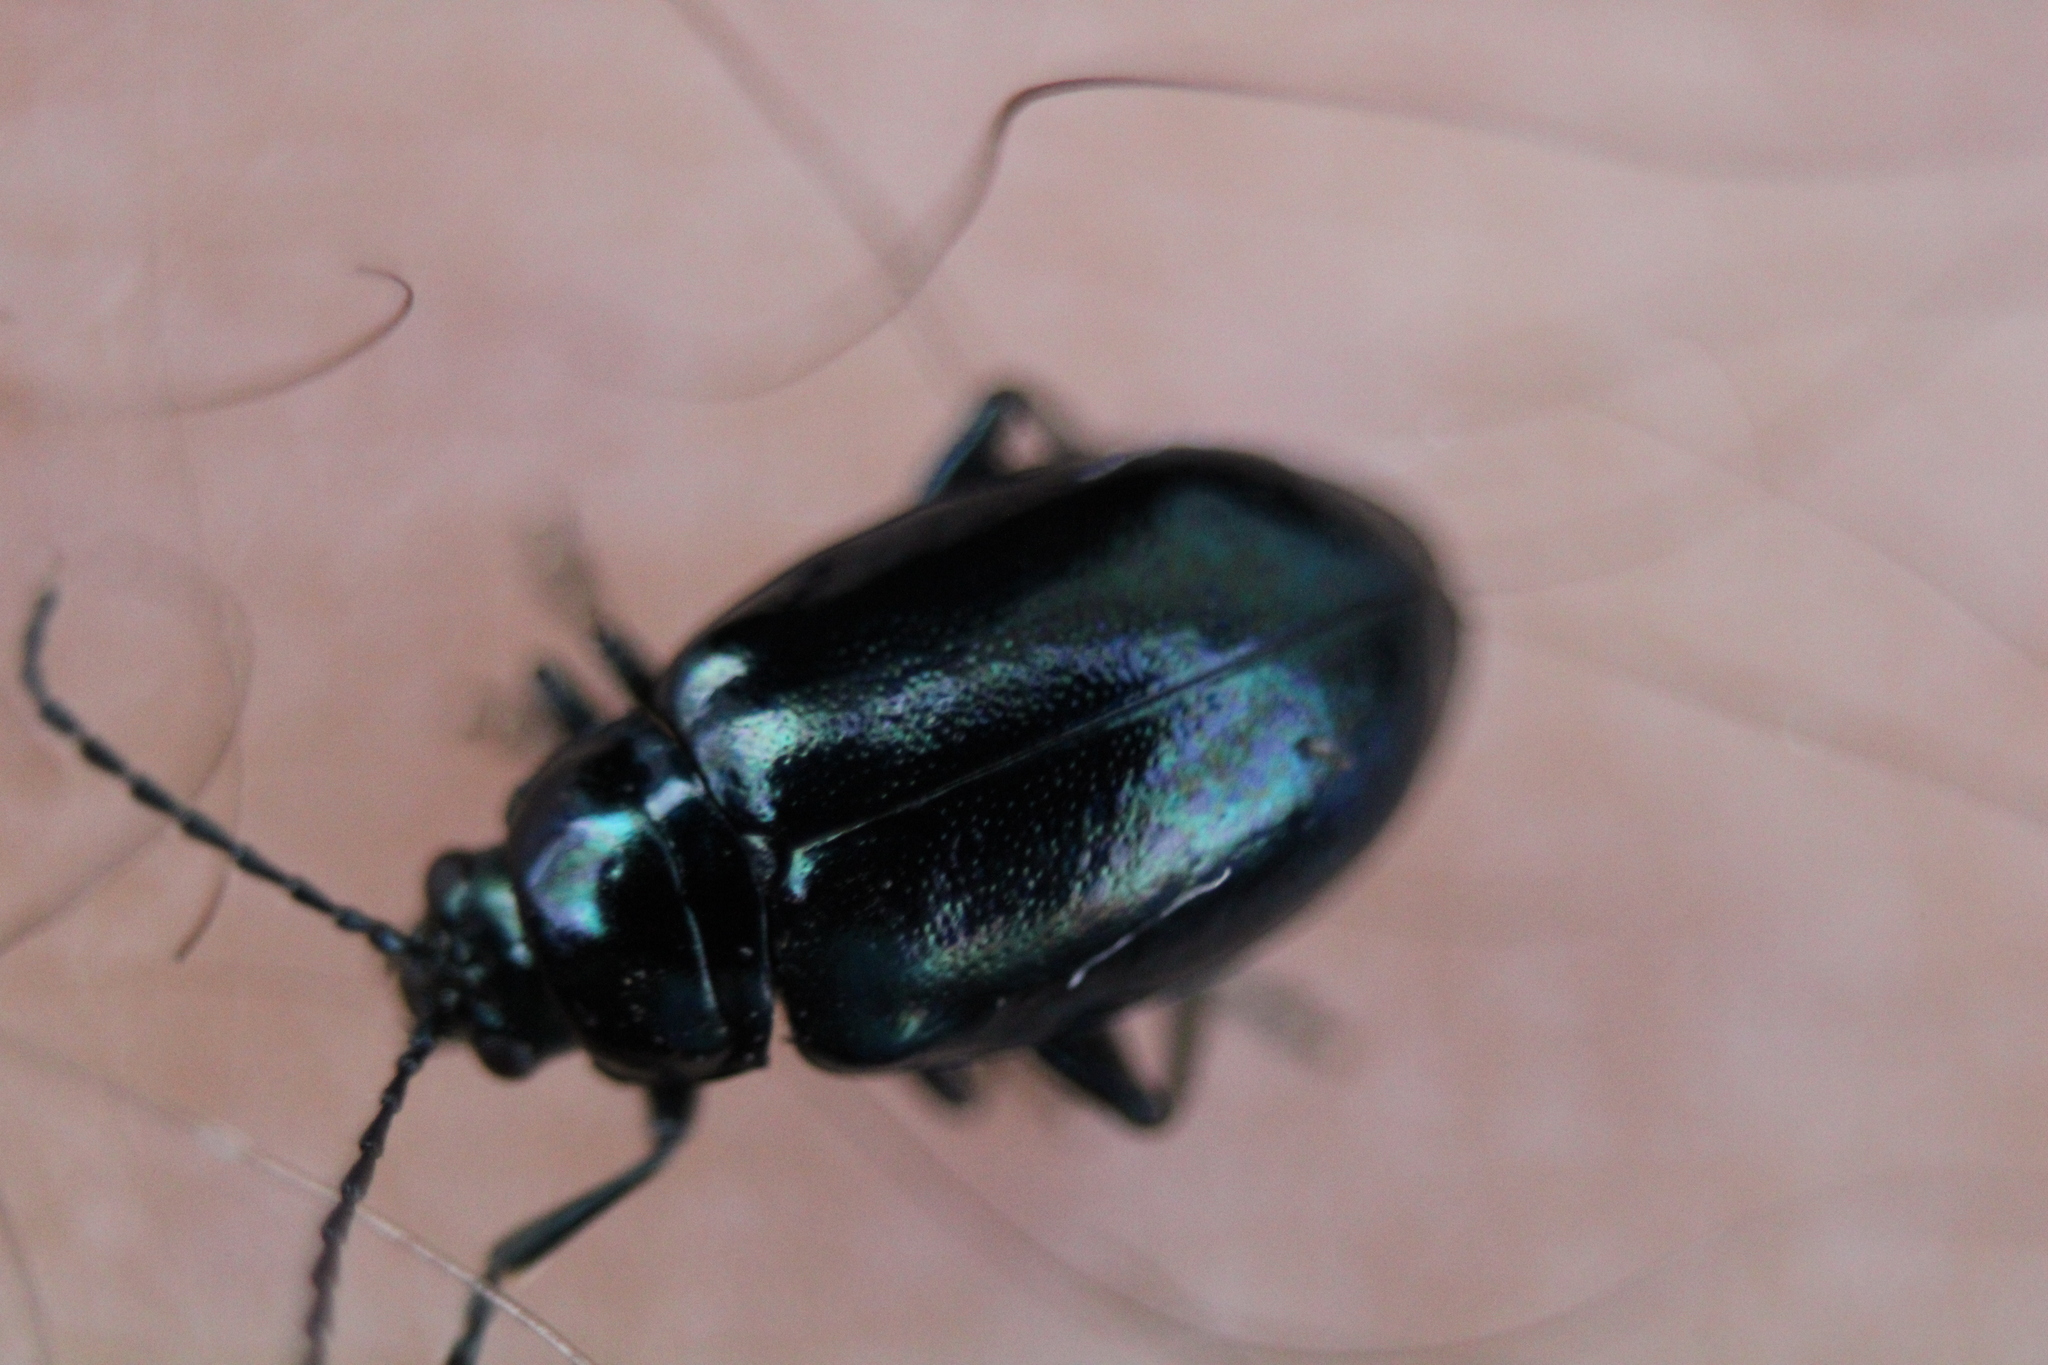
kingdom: Animalia
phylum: Arthropoda
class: Insecta
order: Coleoptera
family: Chrysomelidae
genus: Altica
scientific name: Altica chalybea
